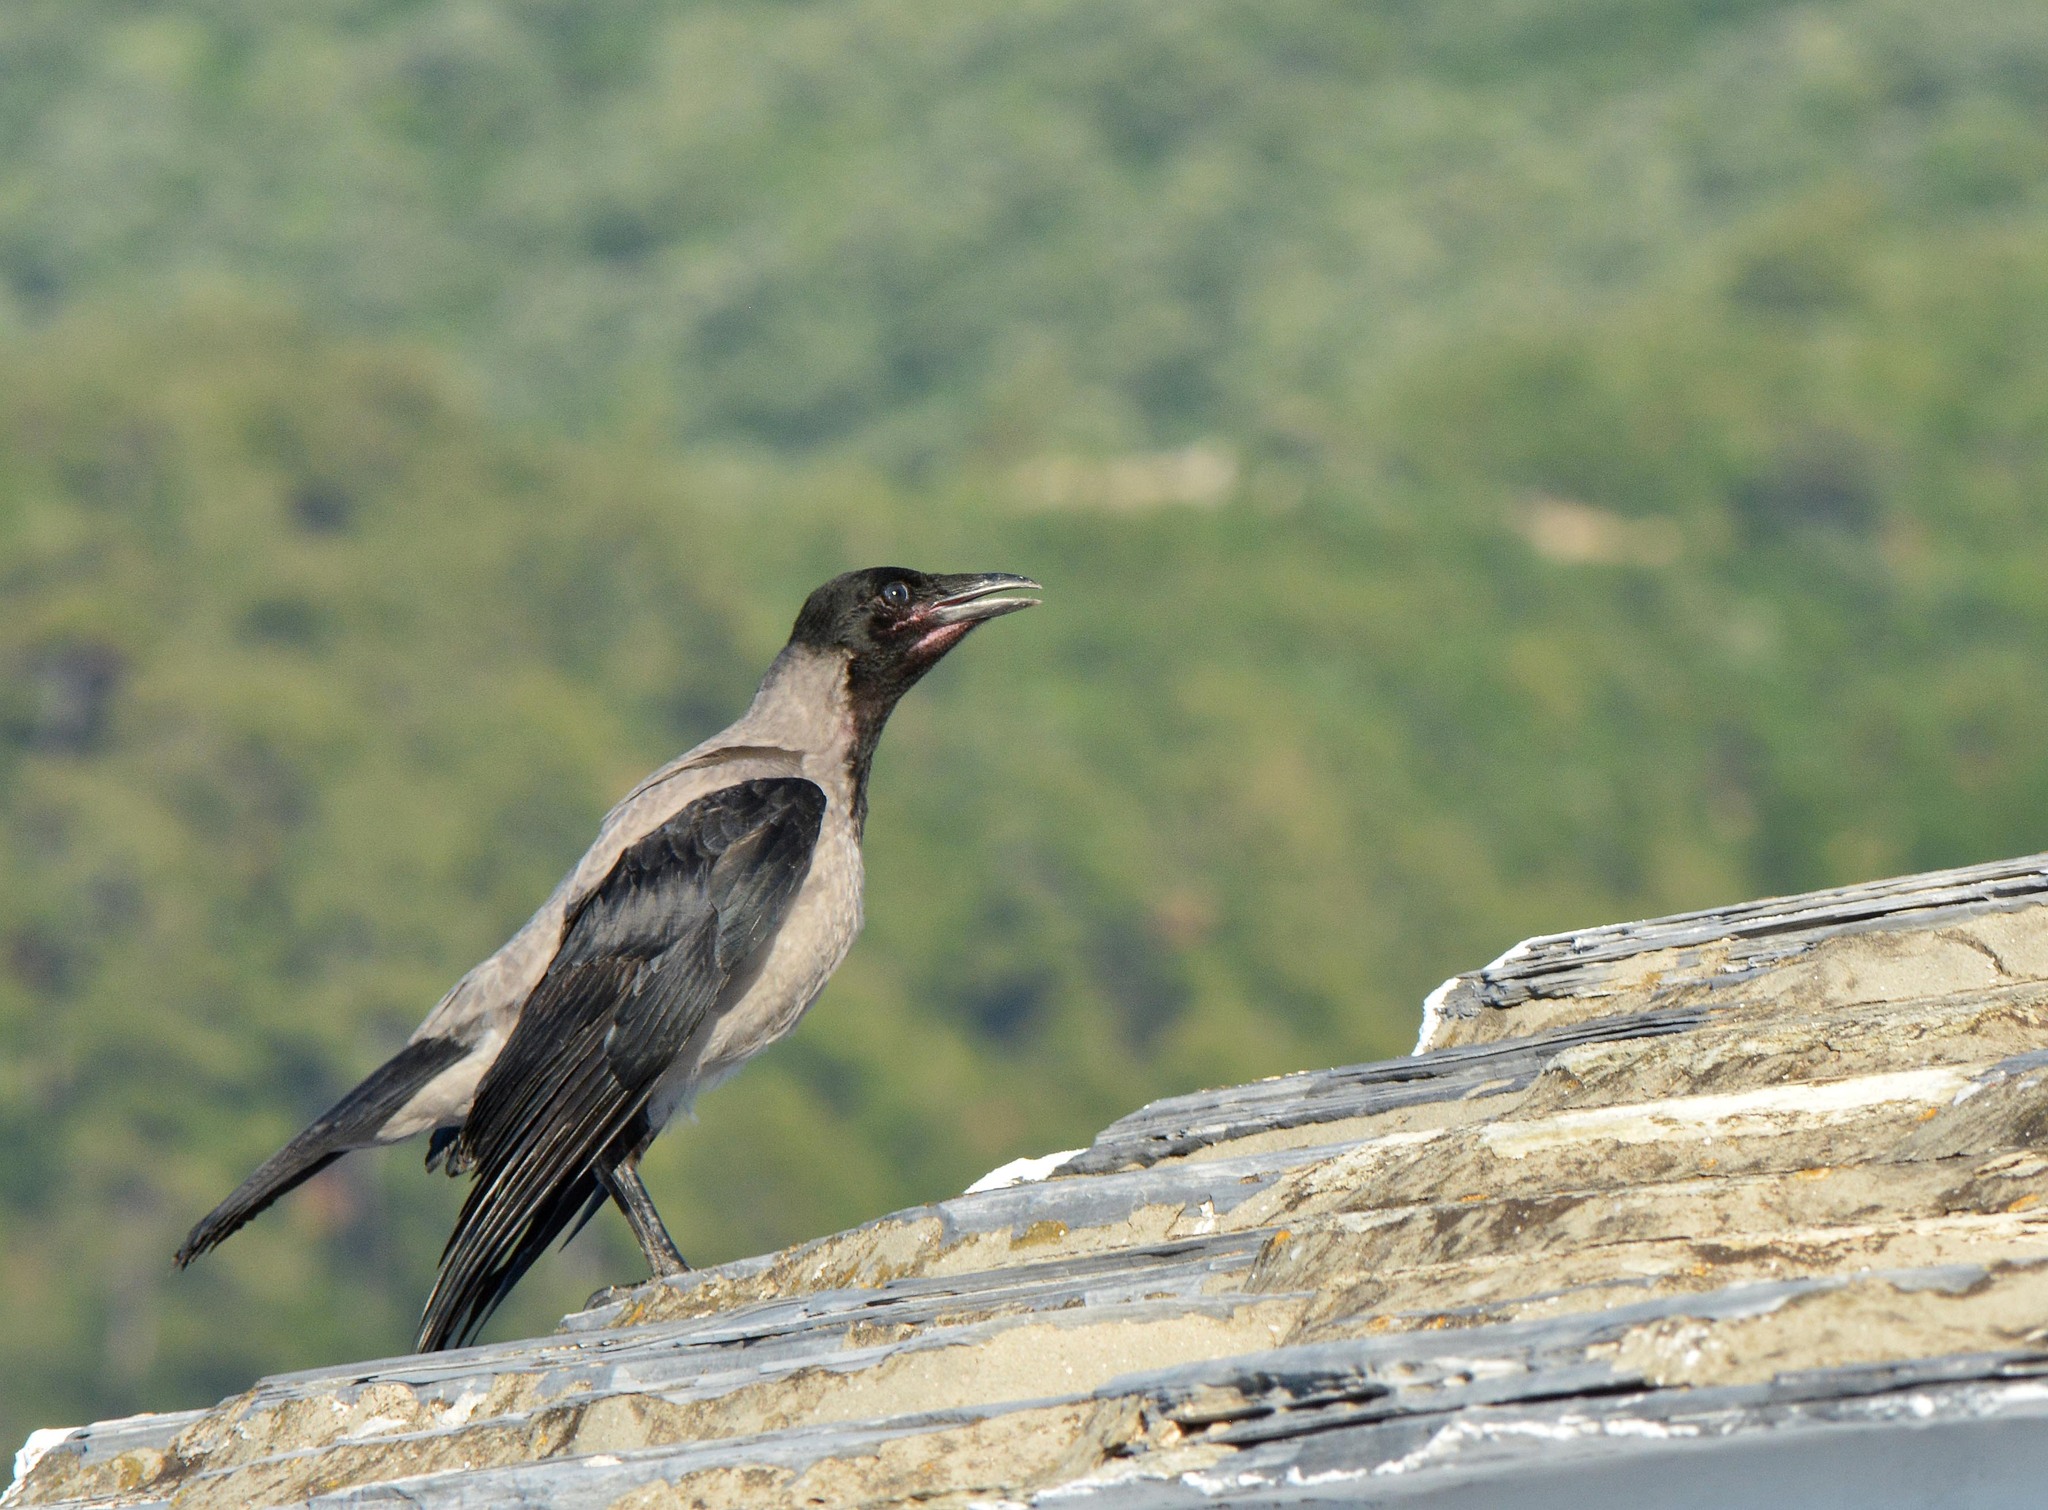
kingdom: Animalia
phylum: Chordata
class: Aves
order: Passeriformes
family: Corvidae
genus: Corvus
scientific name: Corvus cornix
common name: Hooded crow
